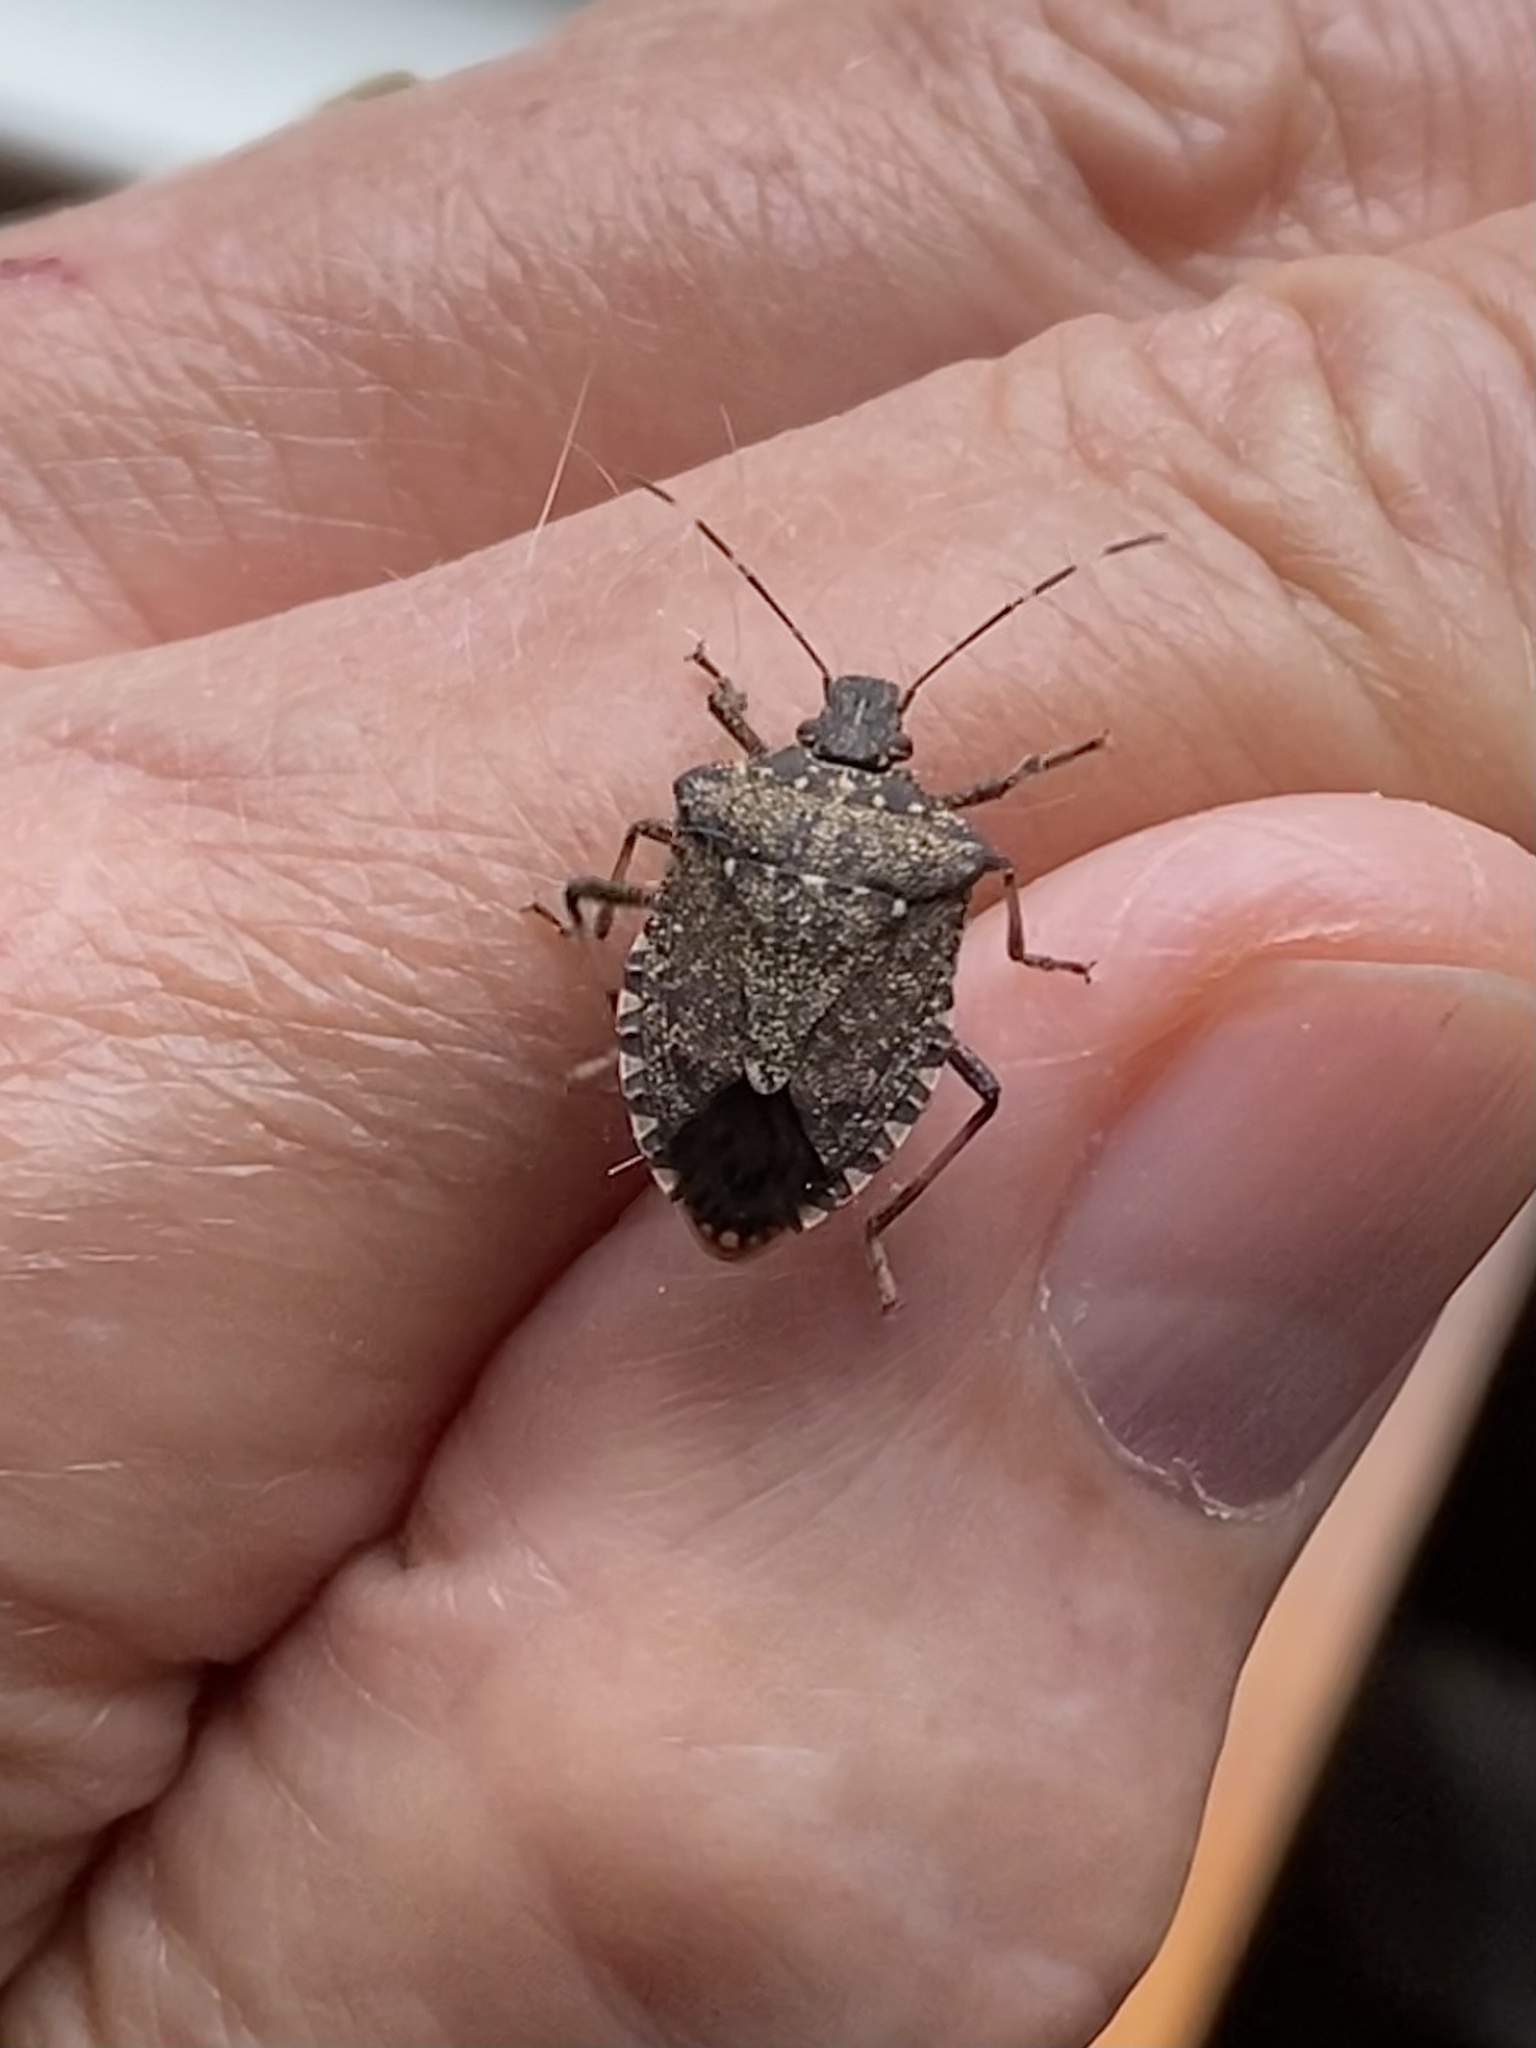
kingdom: Animalia
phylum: Arthropoda
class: Insecta
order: Hemiptera
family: Pentatomidae
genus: Halyomorpha
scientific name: Halyomorpha halys
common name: Brown marmorated stink bug
